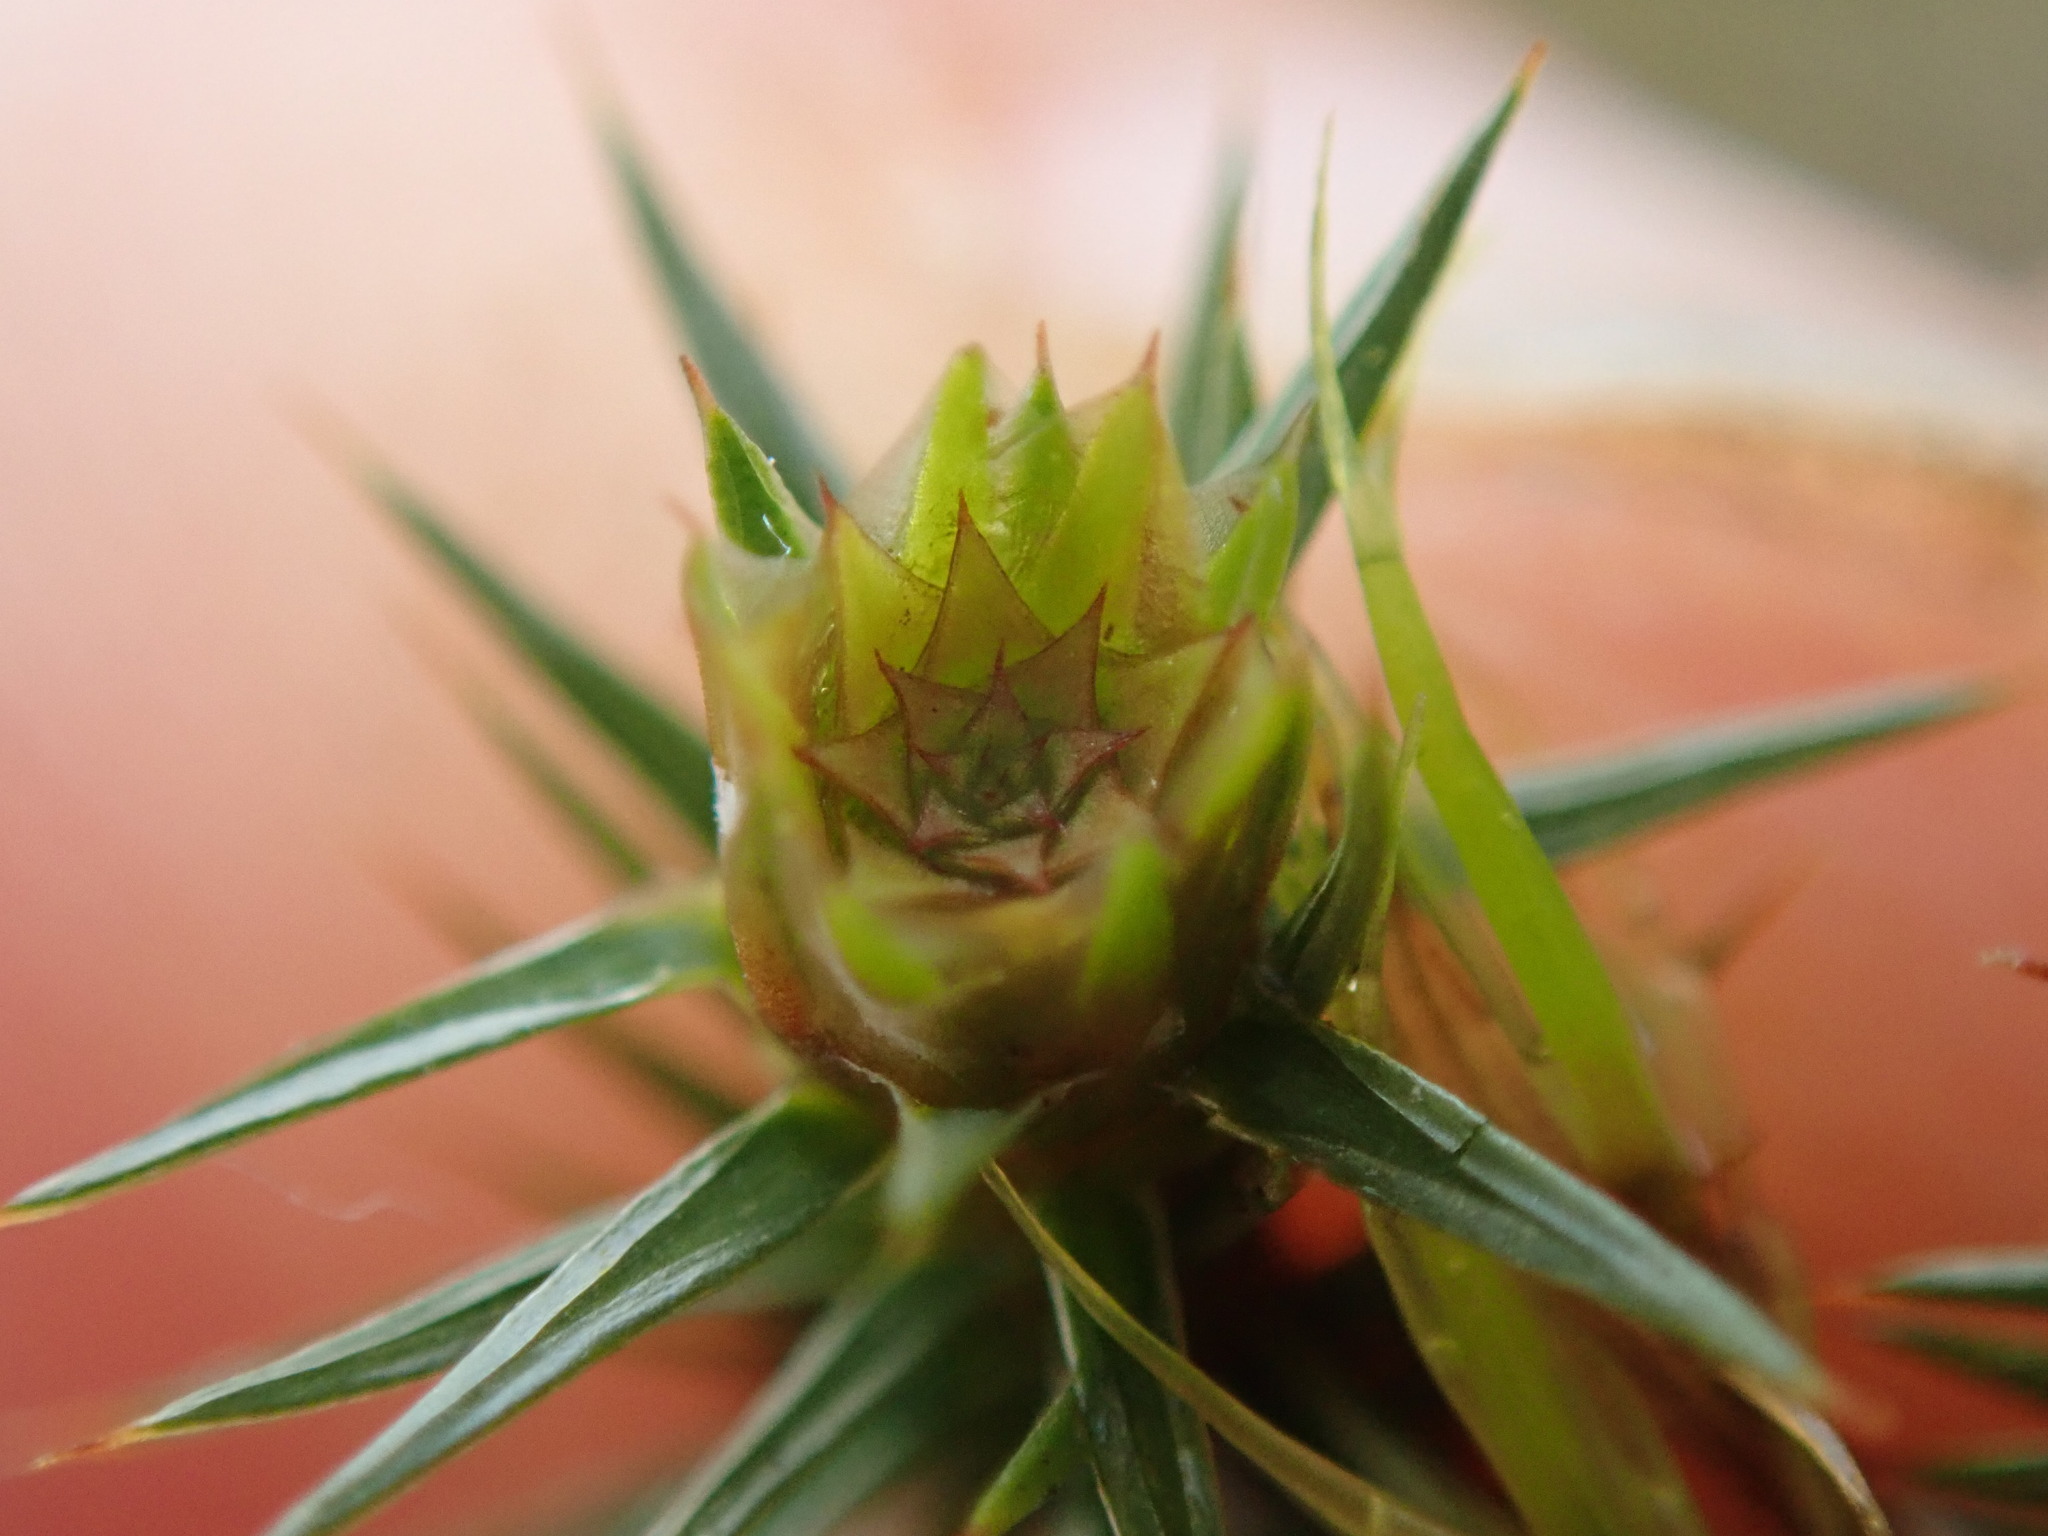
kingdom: Plantae
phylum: Bryophyta
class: Polytrichopsida
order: Polytrichales
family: Polytrichaceae
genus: Polytrichum
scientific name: Polytrichum juniperinum
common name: Juniper haircap moss
